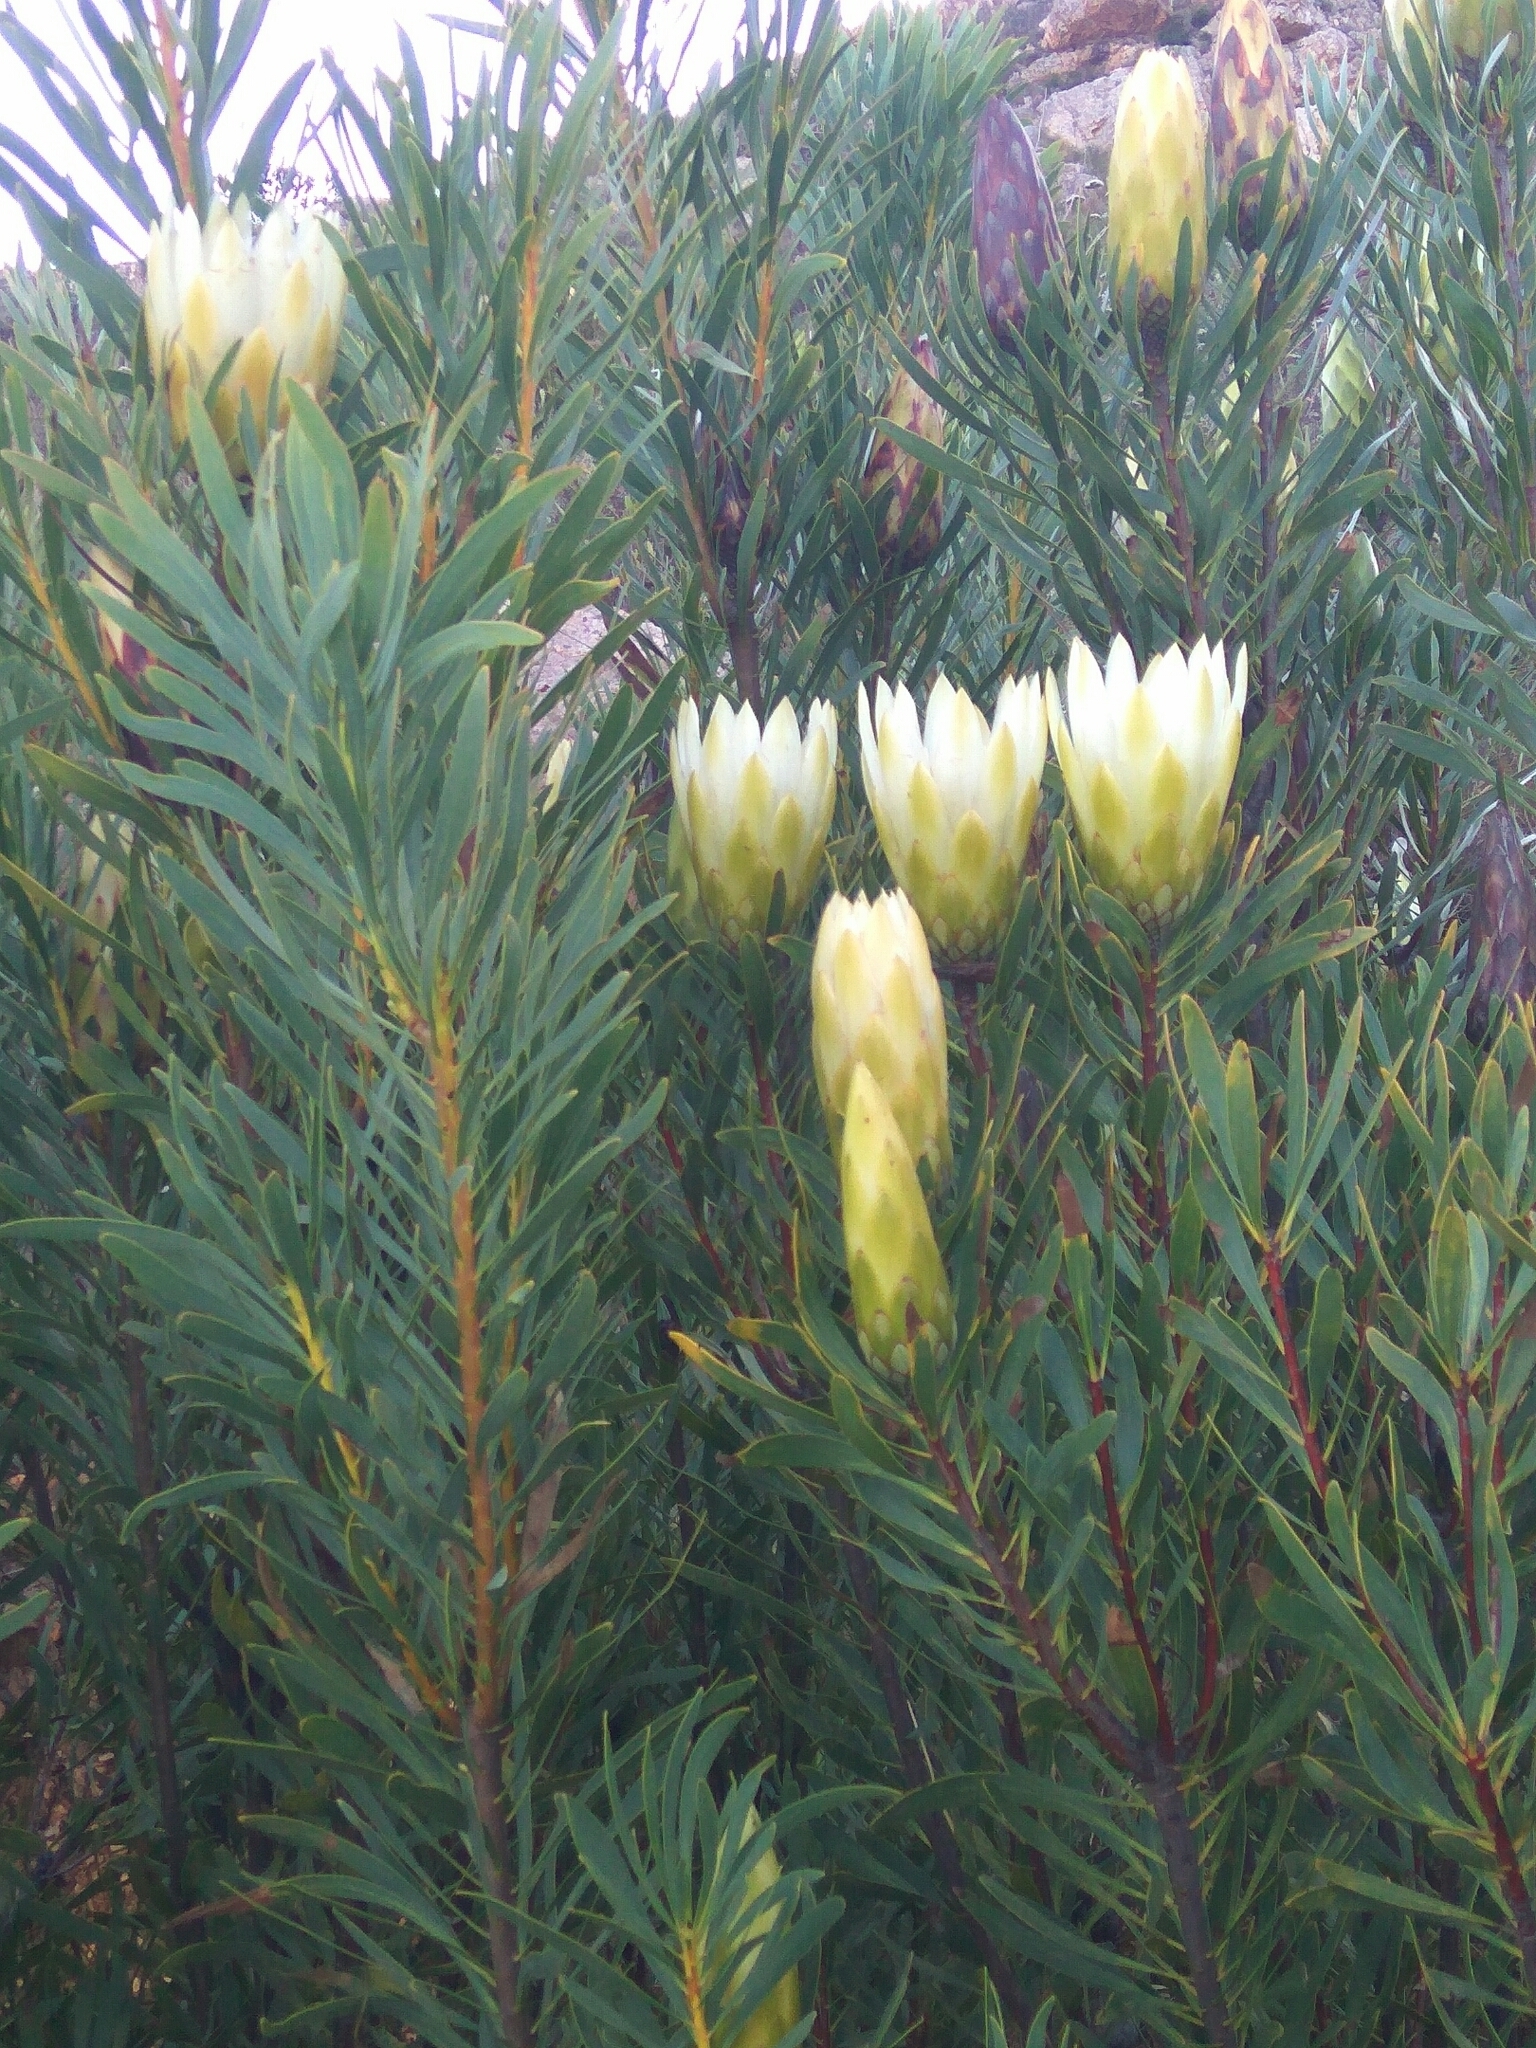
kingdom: Plantae
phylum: Tracheophyta
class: Magnoliopsida
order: Proteales
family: Proteaceae
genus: Protea
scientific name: Protea repens
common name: Sugarbush
